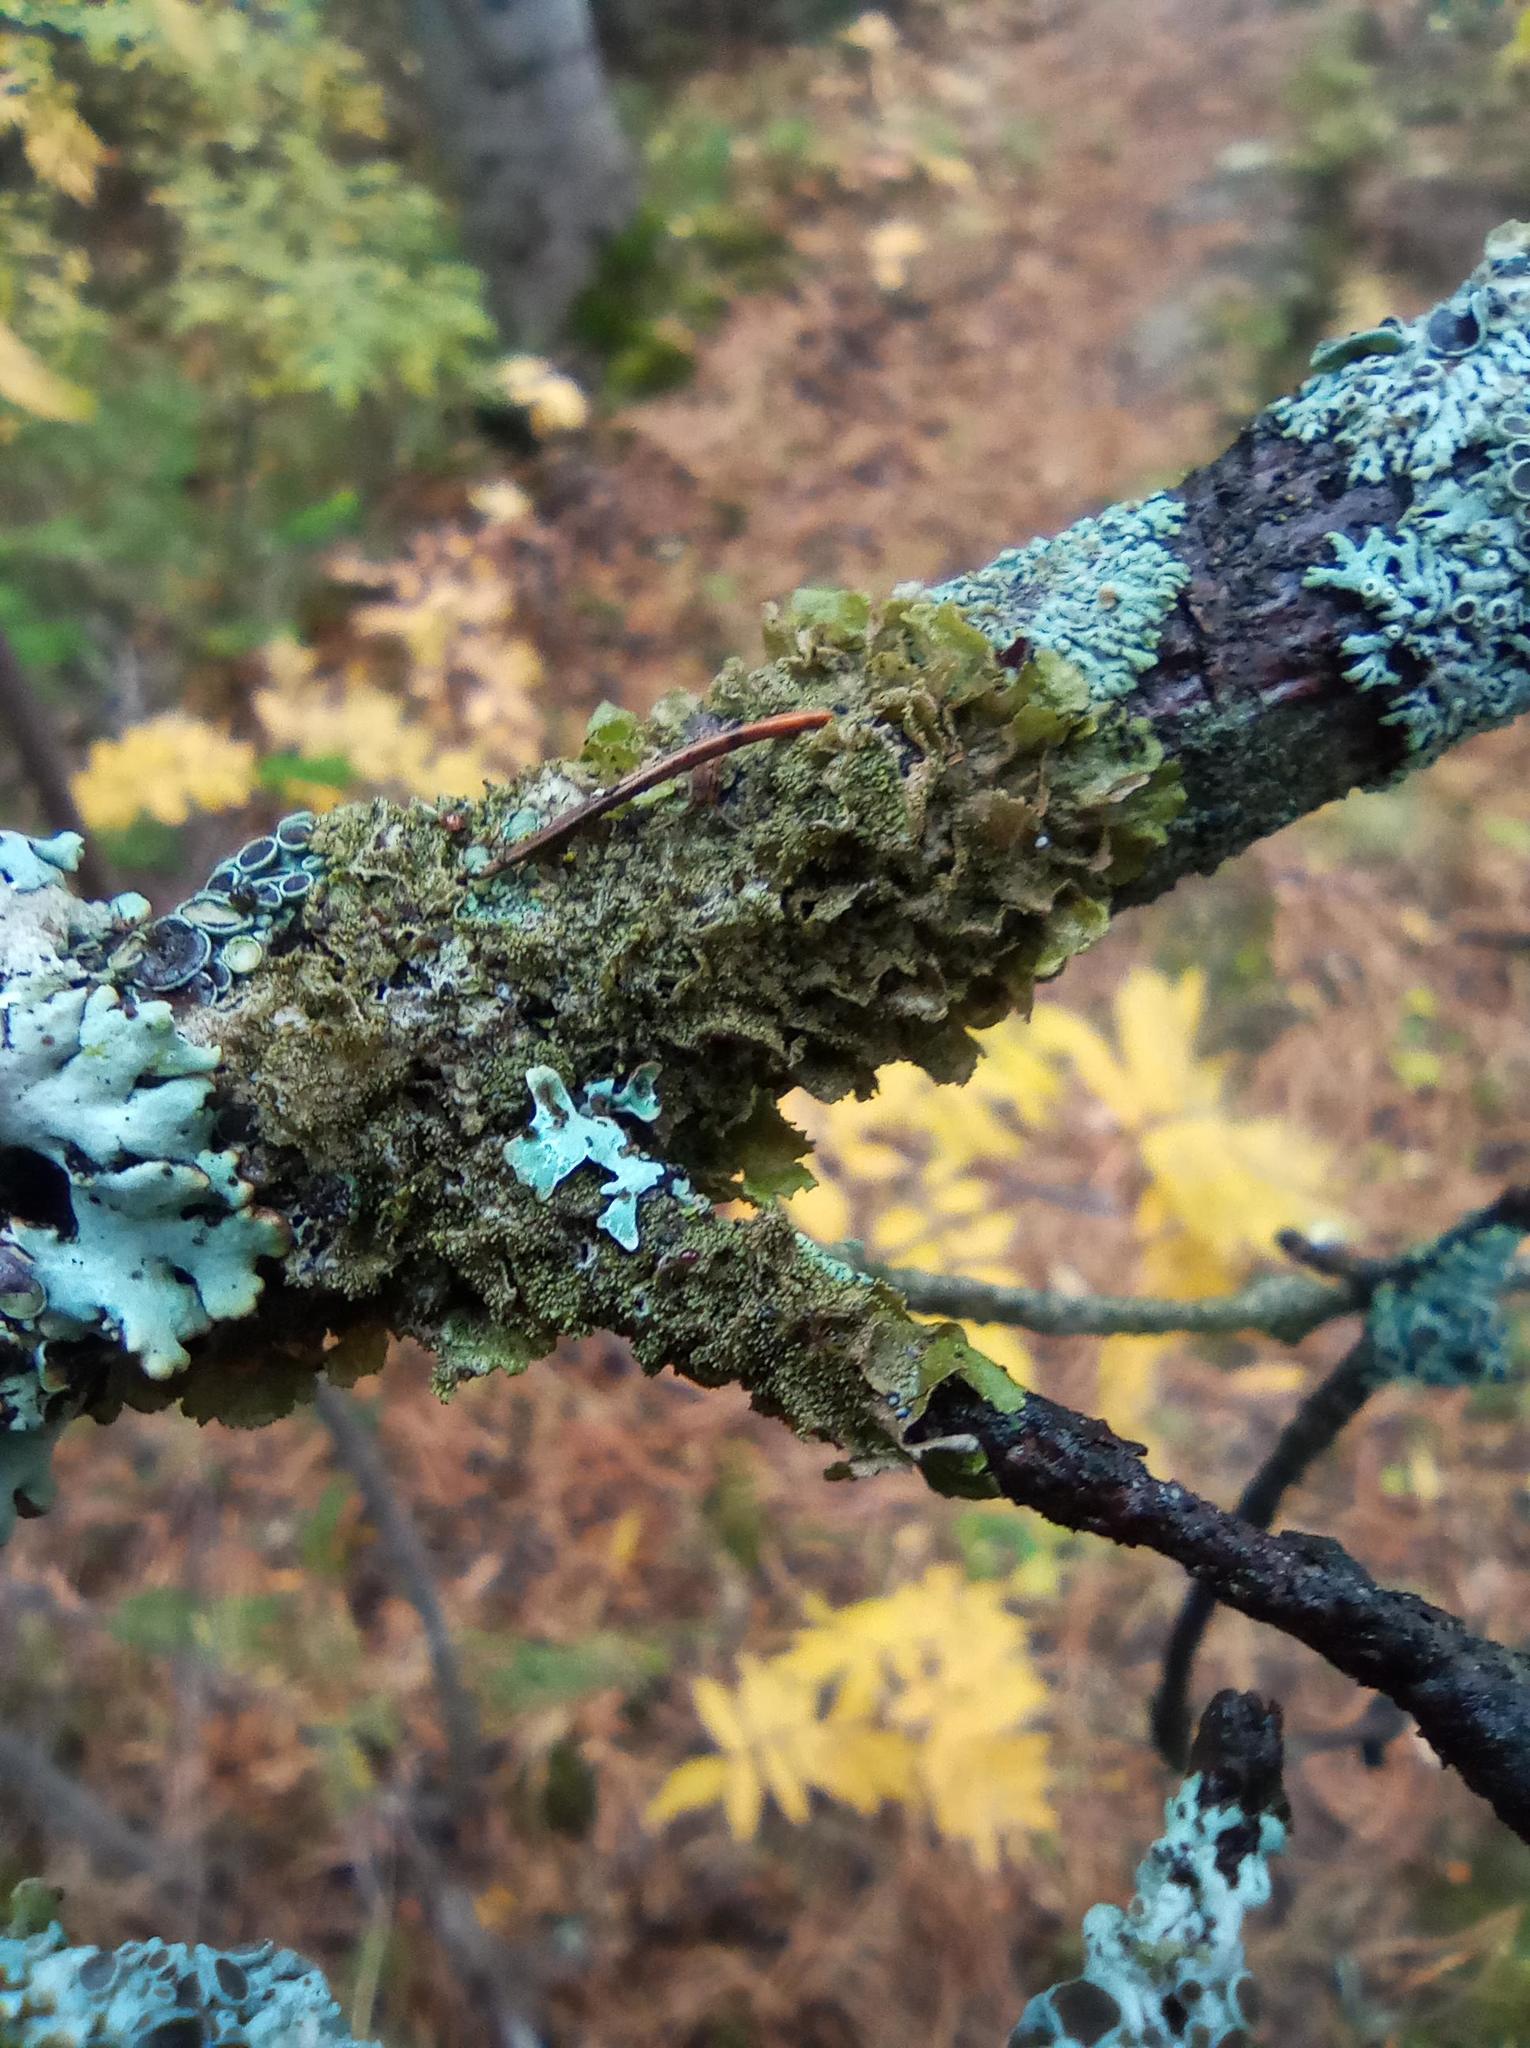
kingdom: Fungi
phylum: Ascomycota
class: Lecanoromycetes
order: Lecanorales
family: Parmeliaceae
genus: Melanohalea
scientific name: Melanohalea exasperatula
